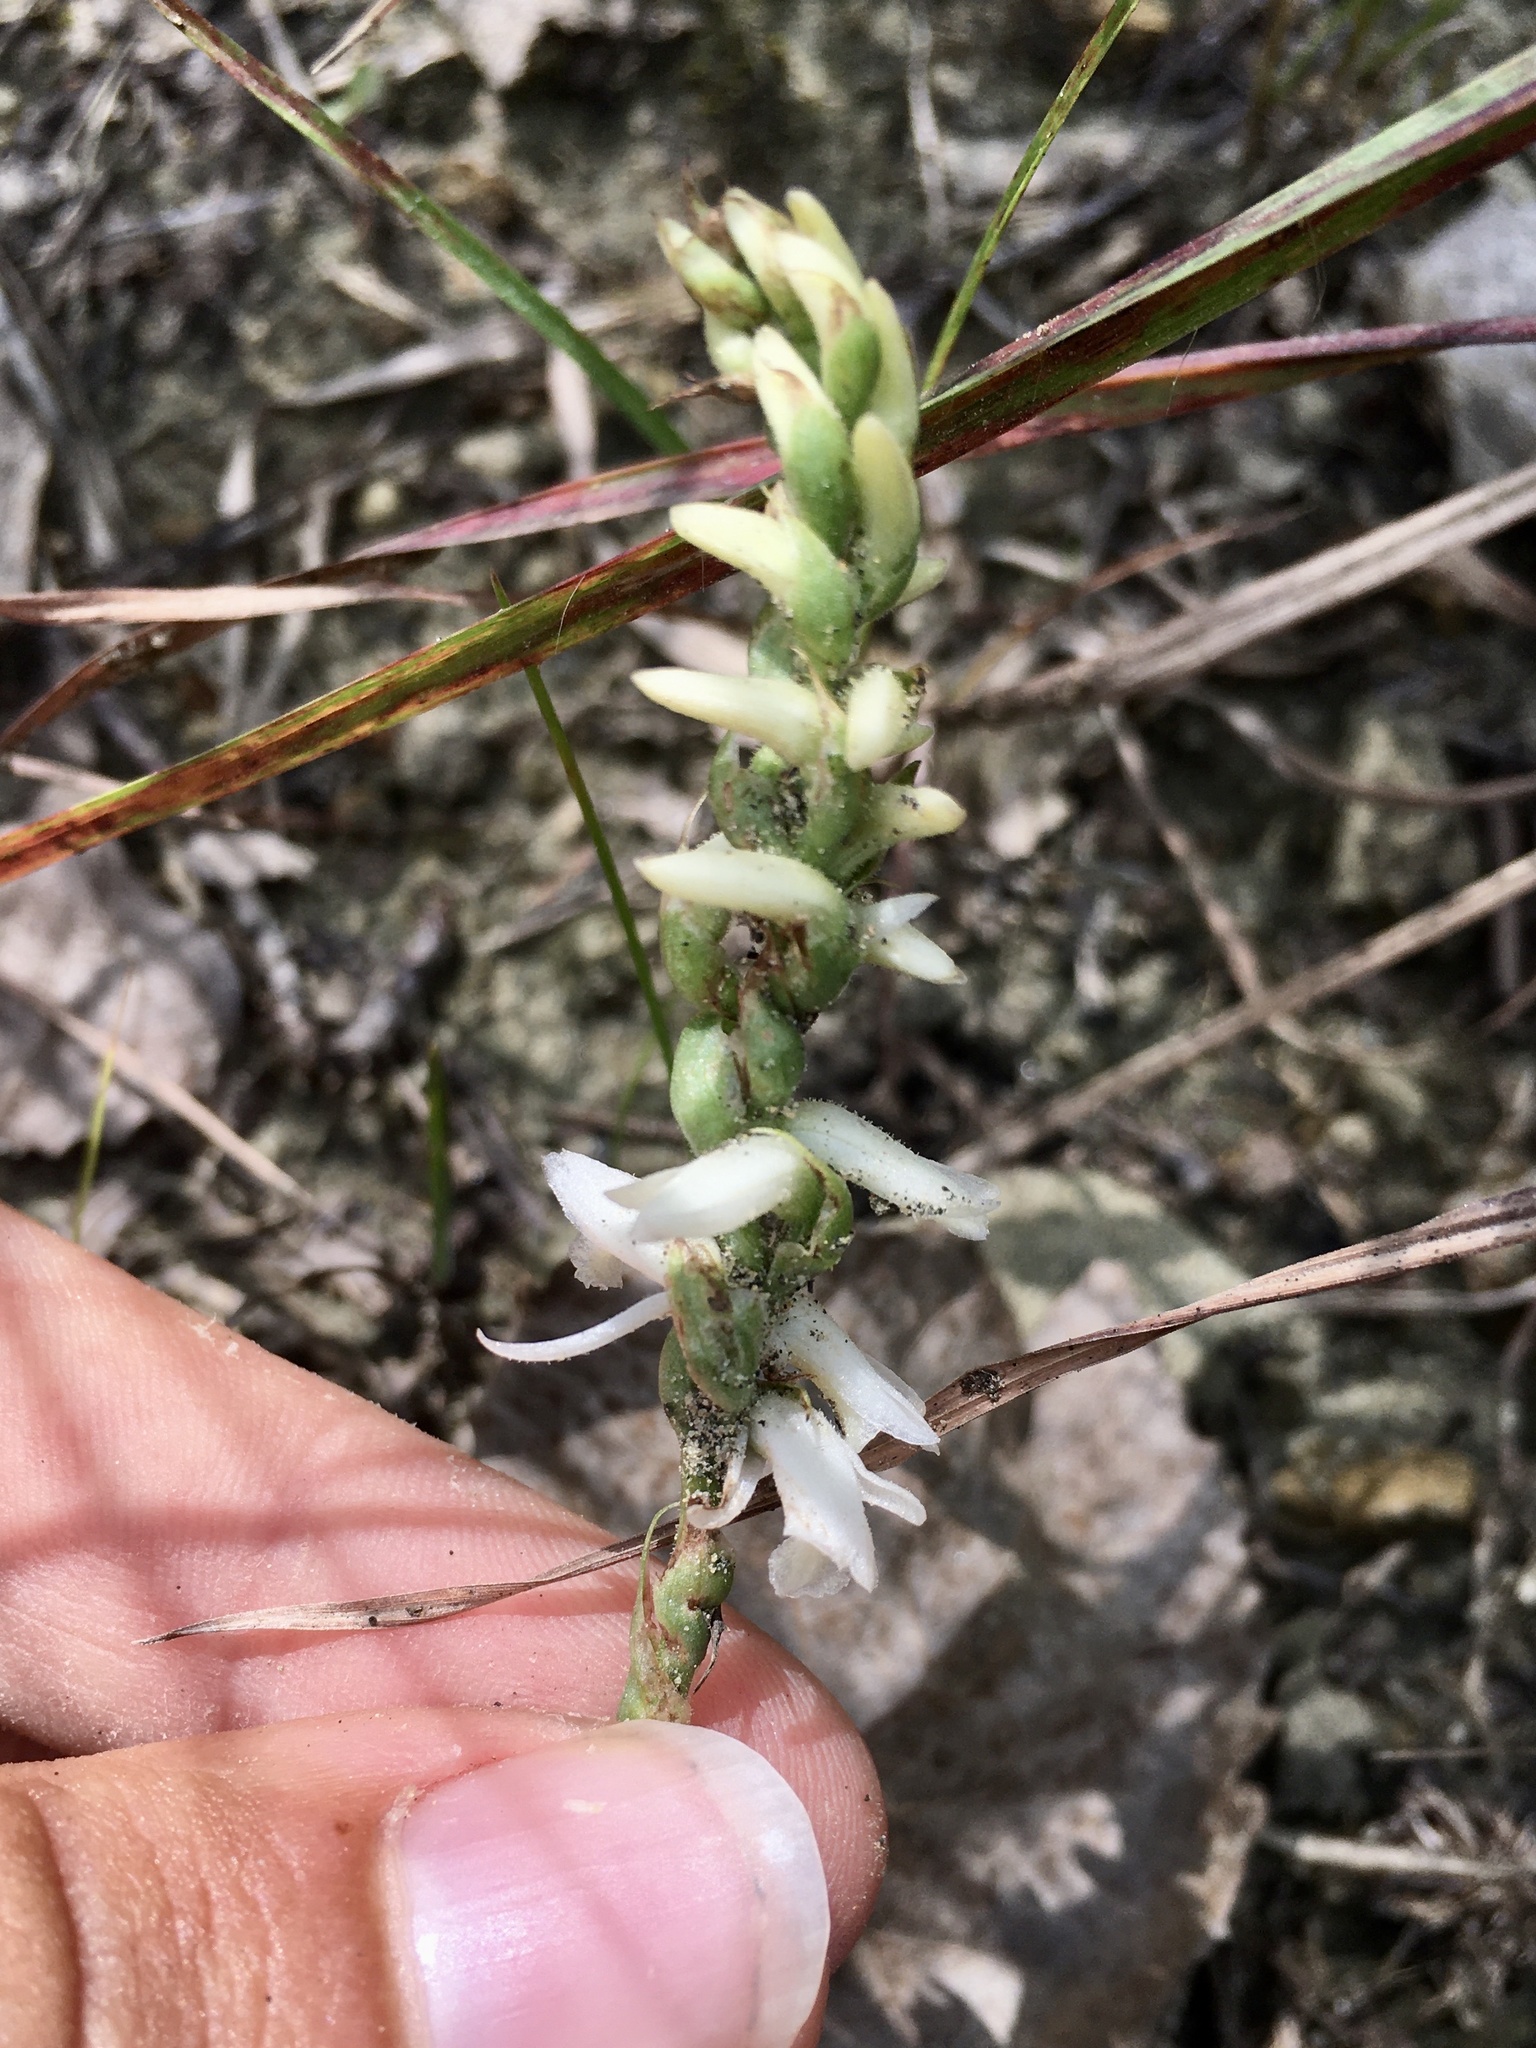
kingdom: Plantae
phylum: Tracheophyta
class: Liliopsida
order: Asparagales
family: Orchidaceae
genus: Spiranthes
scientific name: Spiranthes magnicamporum
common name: Great plains ladies'-tresses
